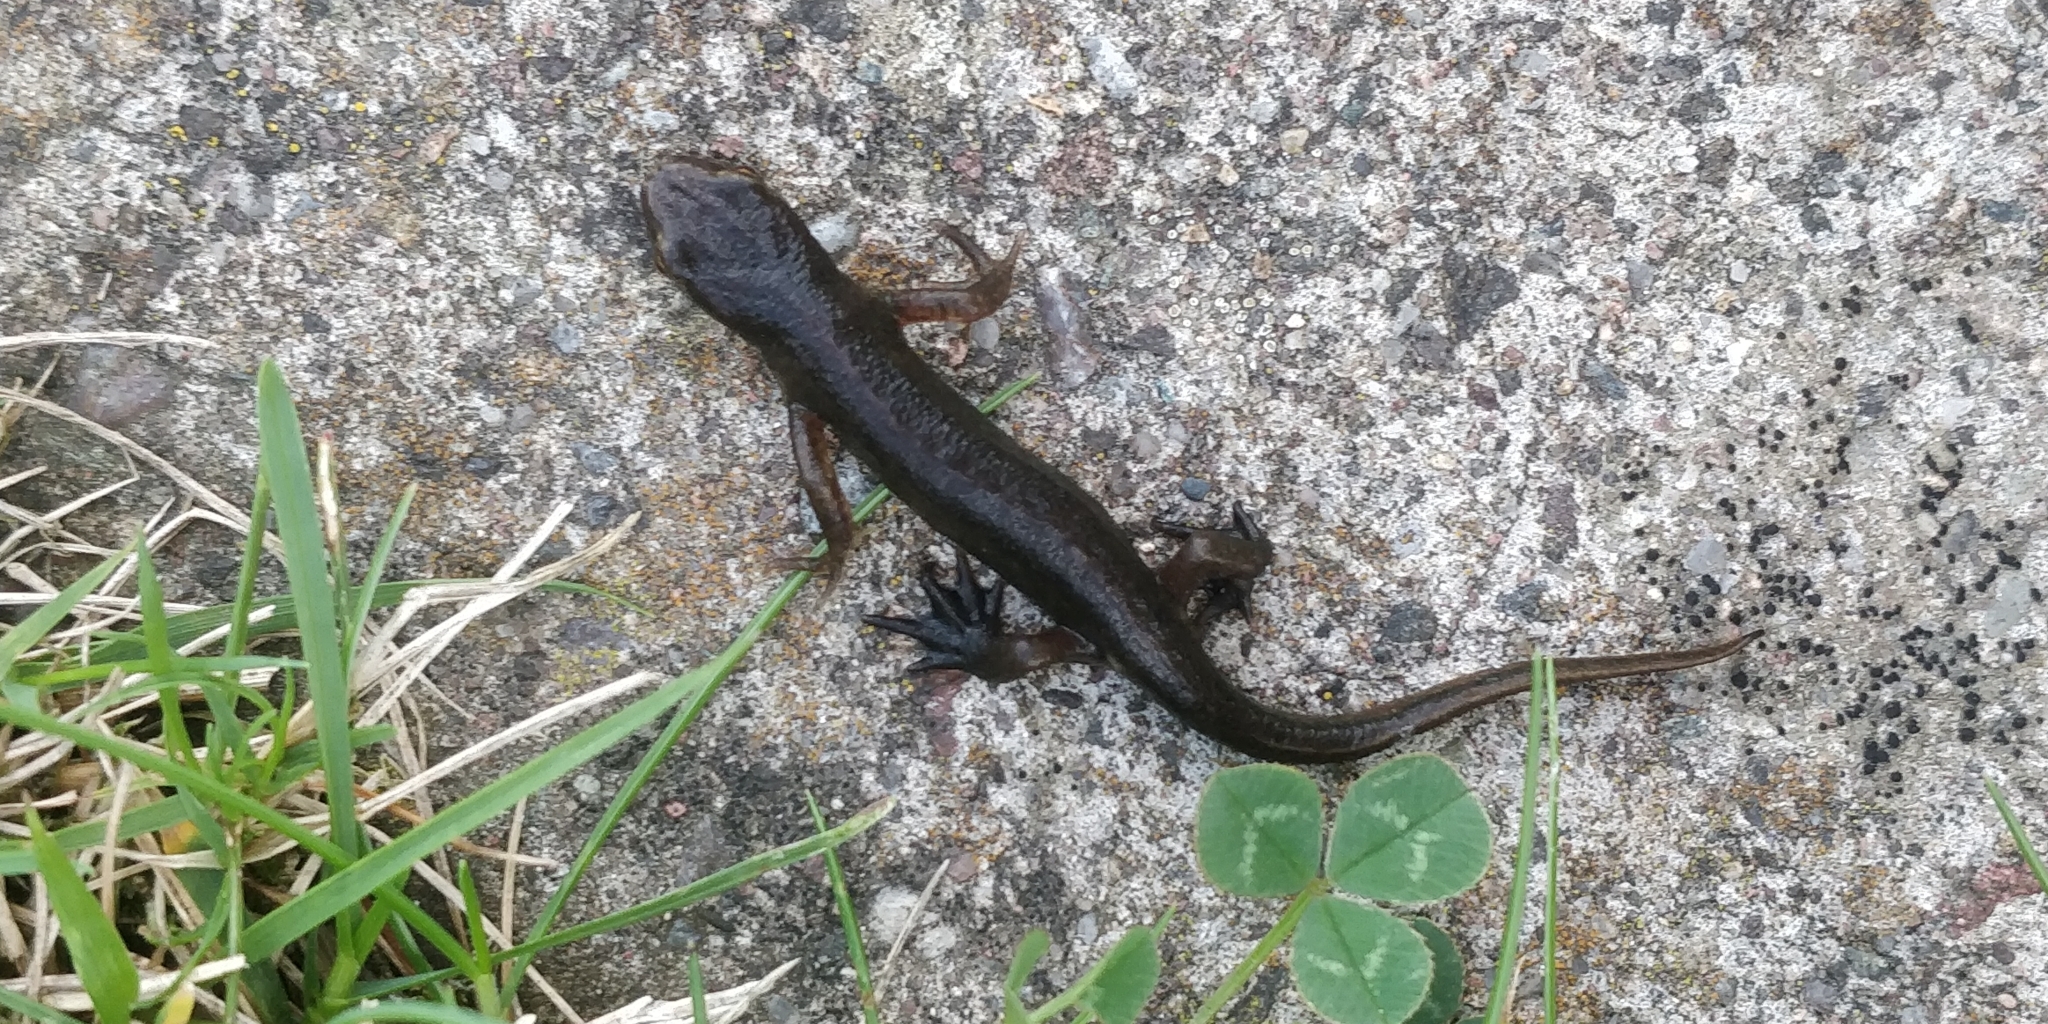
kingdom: Animalia
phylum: Chordata
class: Amphibia
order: Caudata
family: Salamandridae
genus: Lissotriton
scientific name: Lissotriton helveticus
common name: Palmate newt
